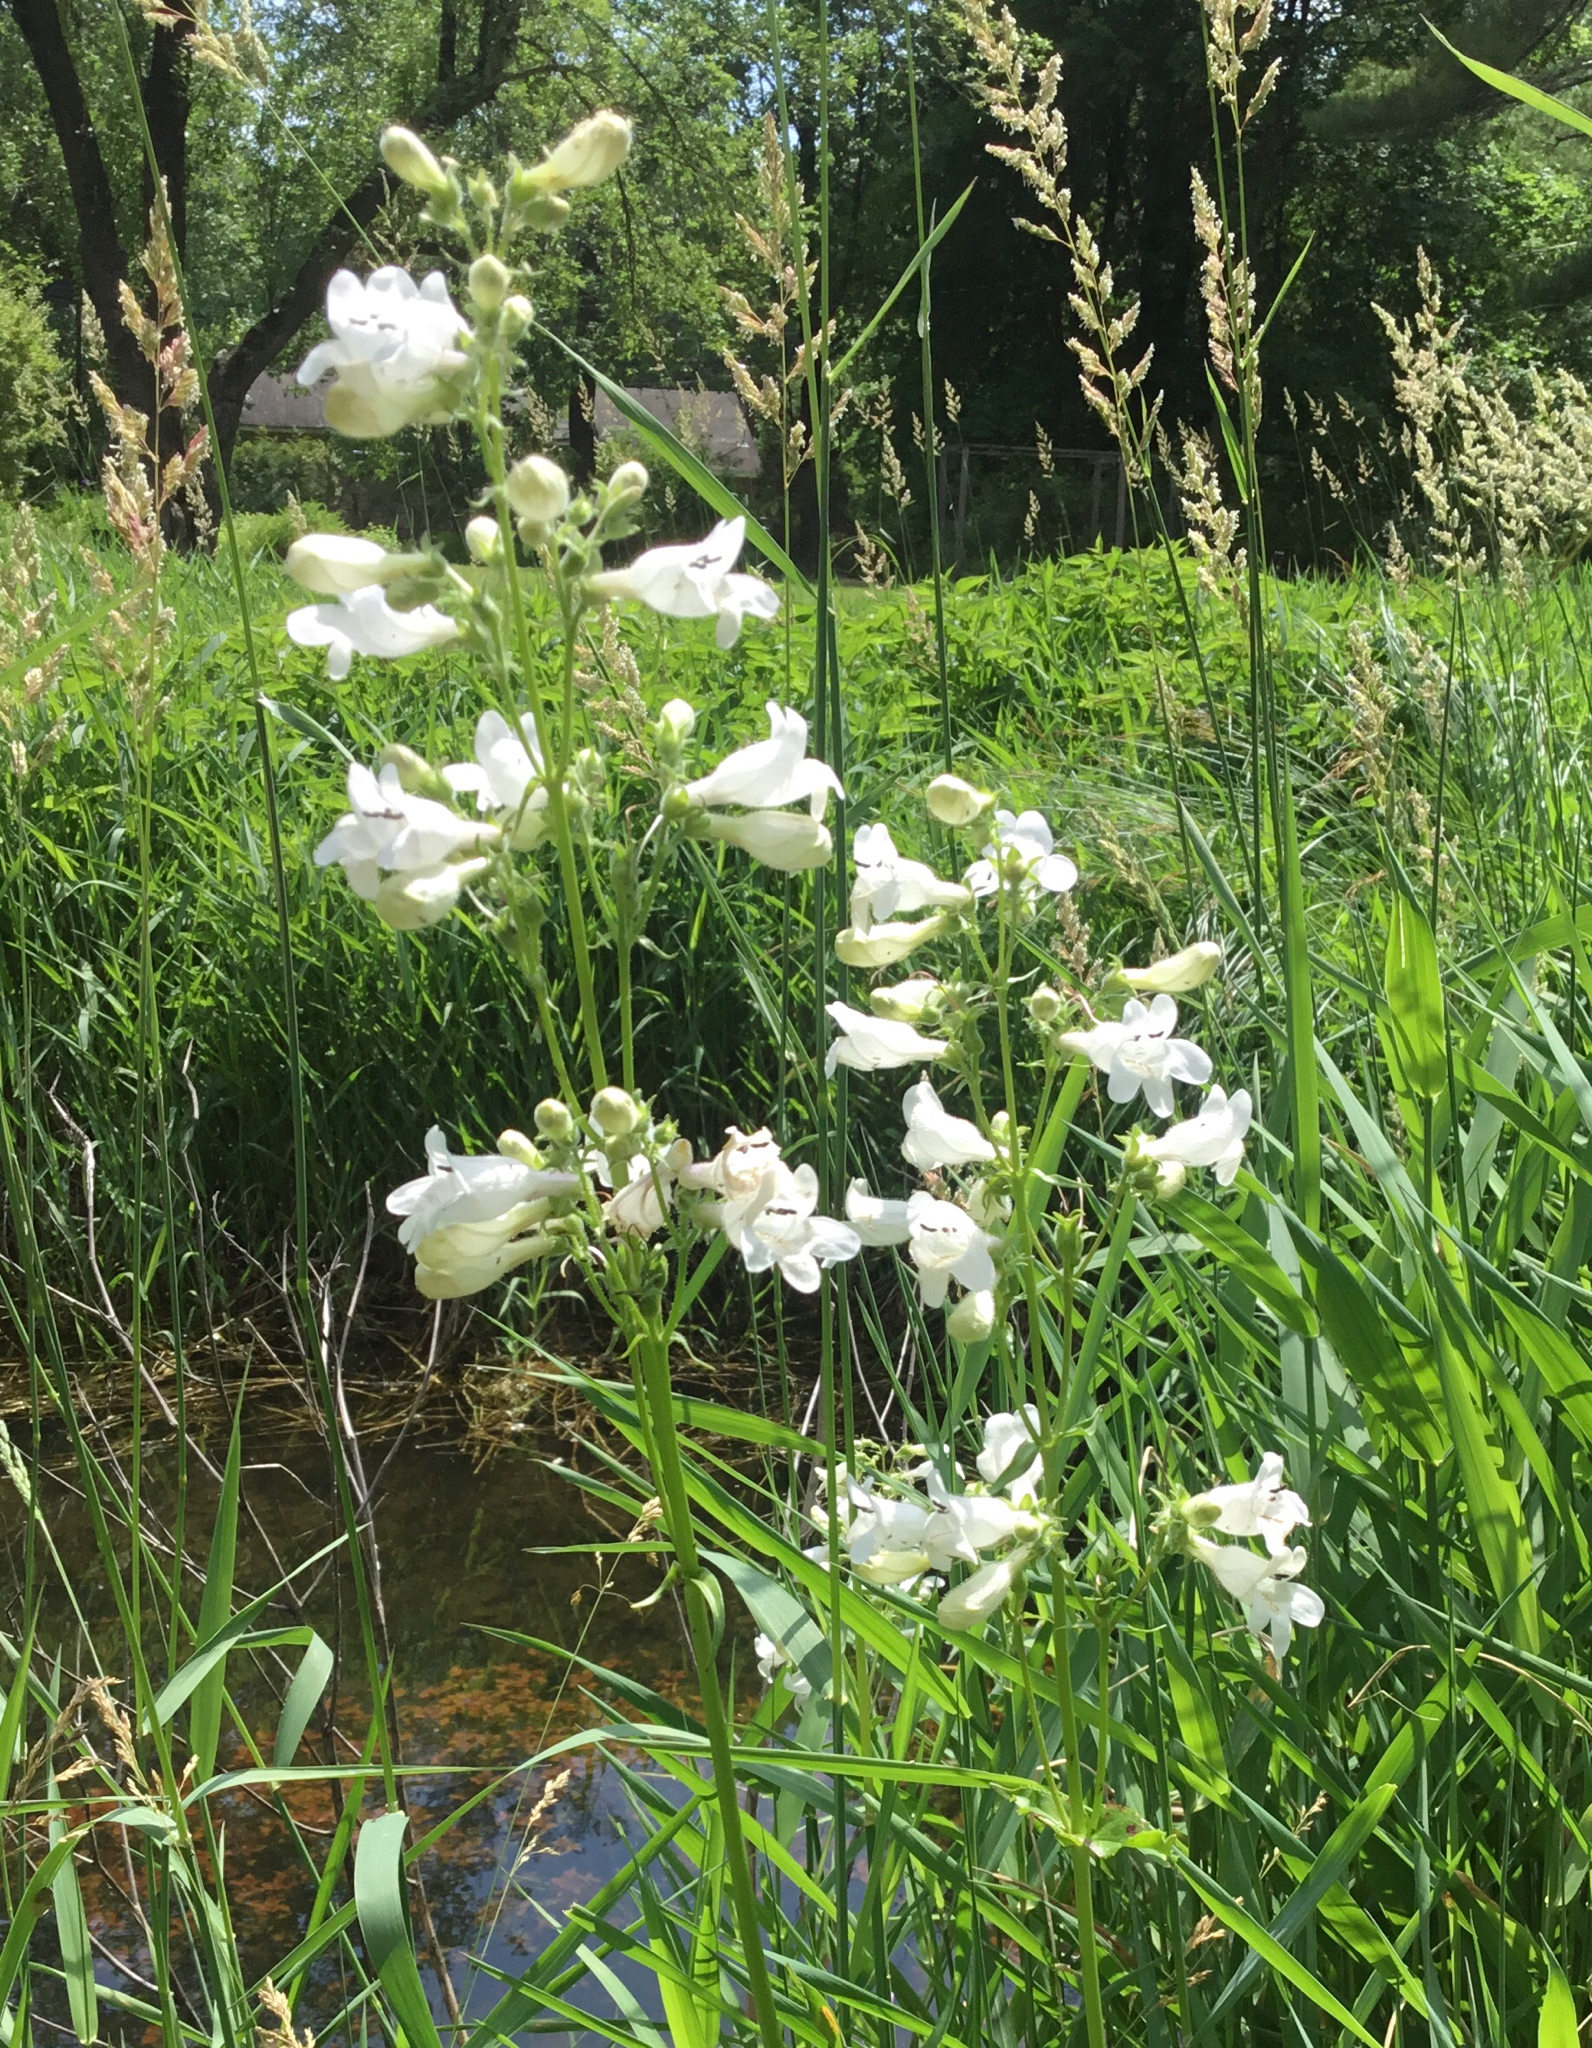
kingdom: Plantae
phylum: Tracheophyta
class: Magnoliopsida
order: Lamiales
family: Plantaginaceae
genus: Penstemon
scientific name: Penstemon digitalis
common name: Foxglove beardtongue
